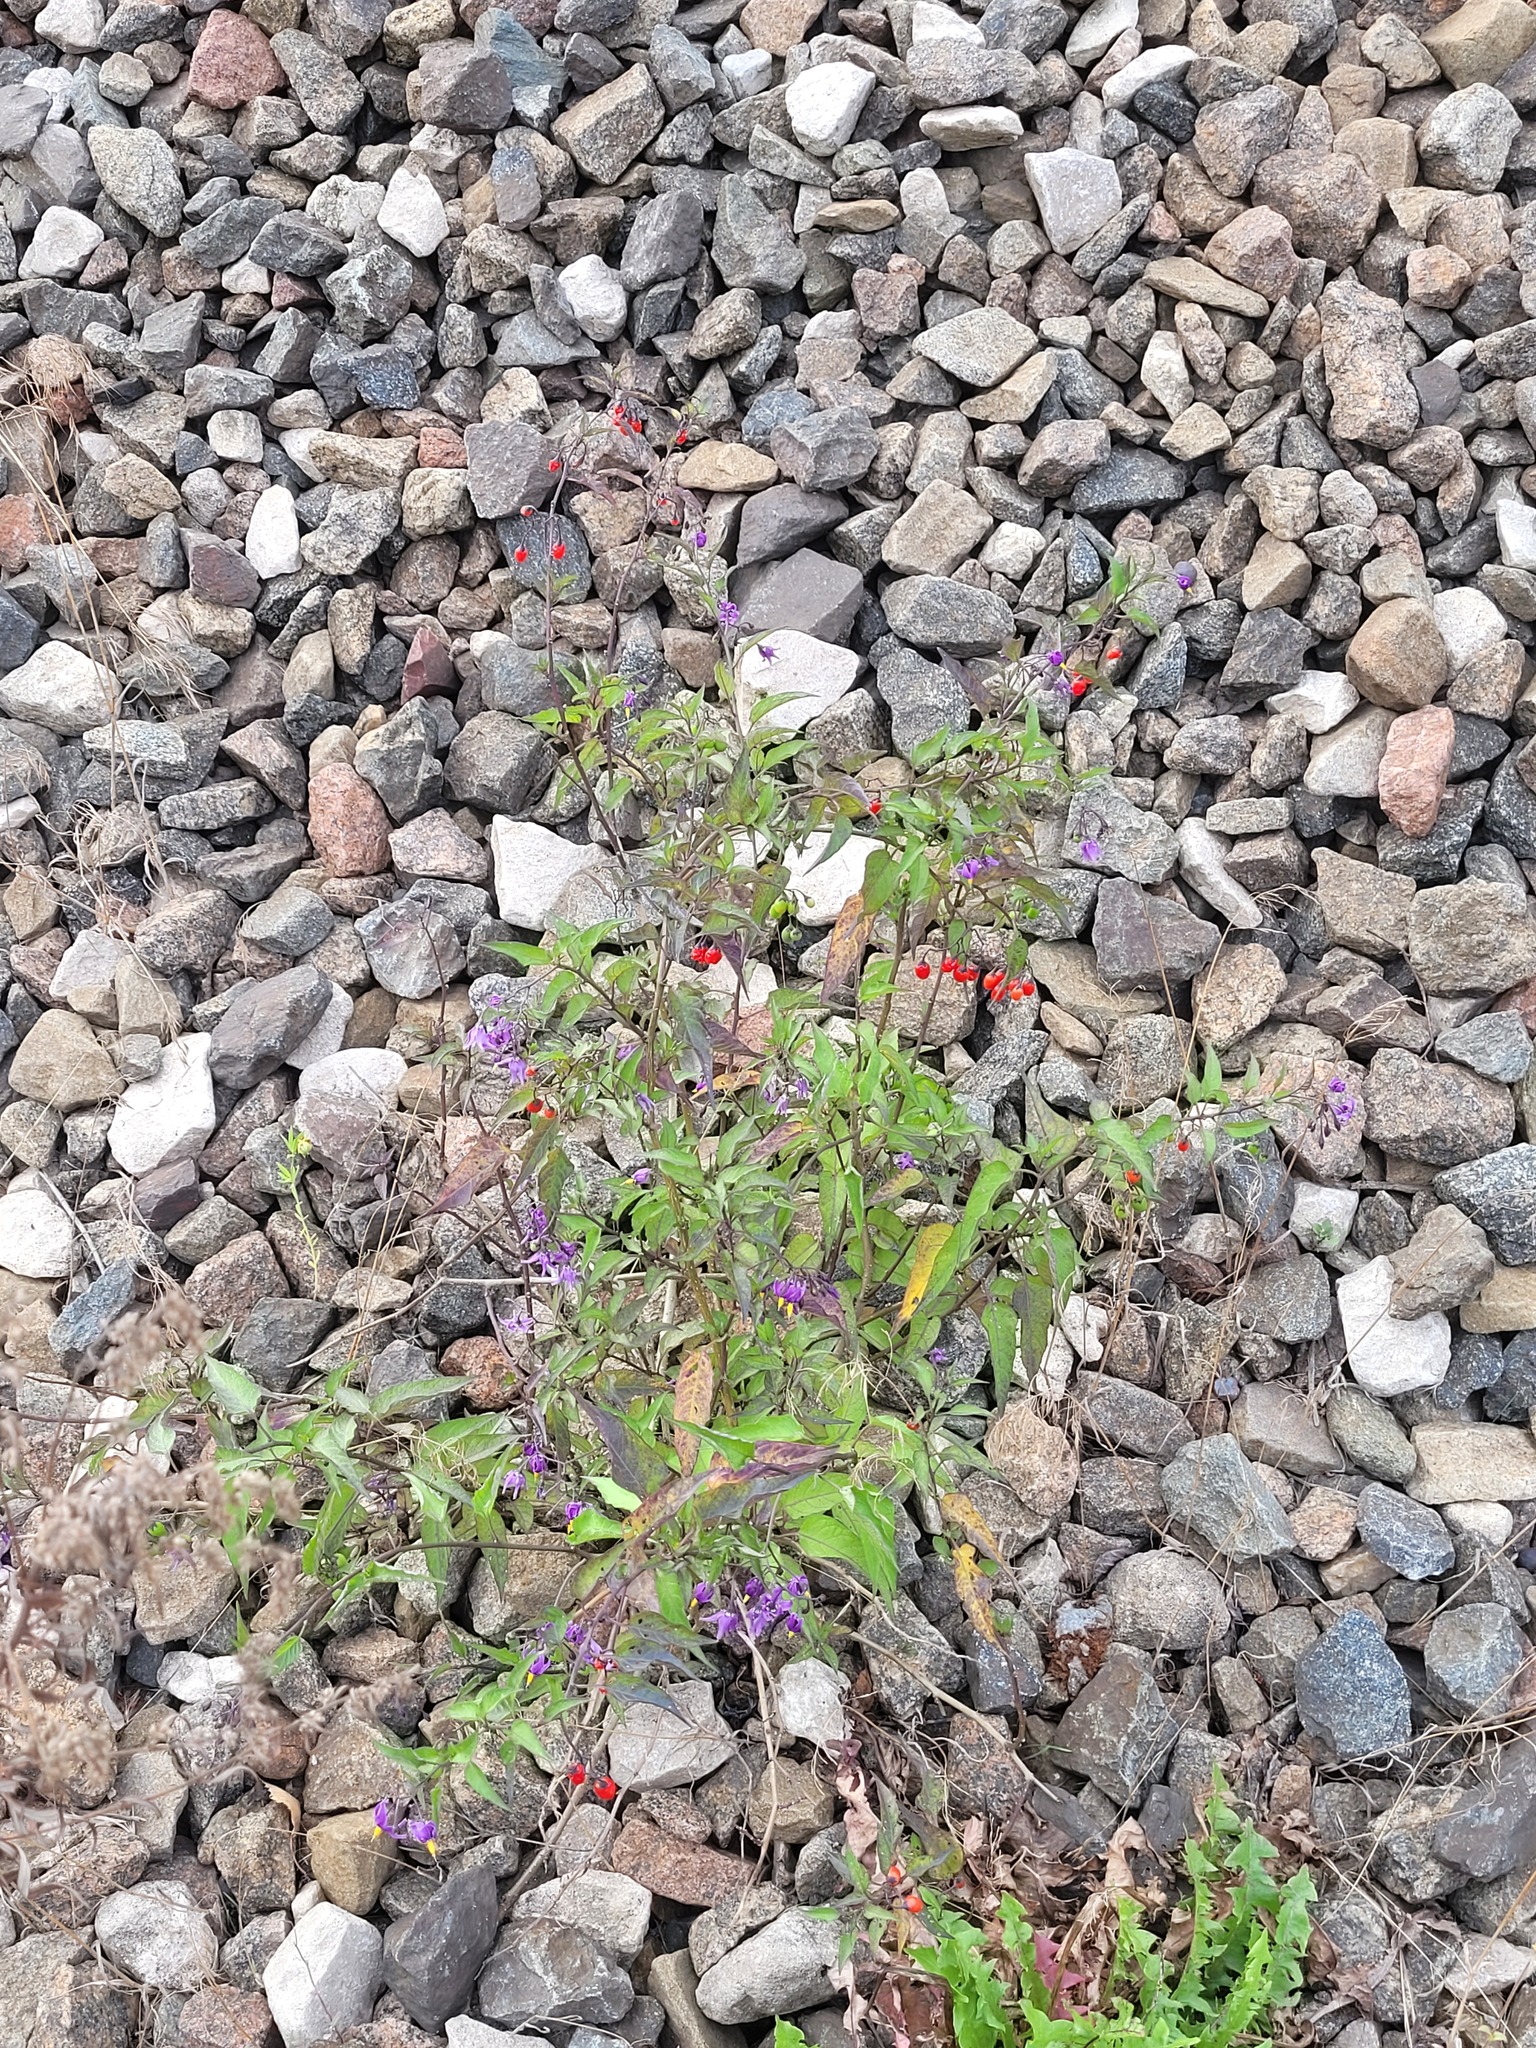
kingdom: Plantae
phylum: Tracheophyta
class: Magnoliopsida
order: Solanales
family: Solanaceae
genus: Solanum
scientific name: Solanum dulcamara
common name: Climbing nightshade
